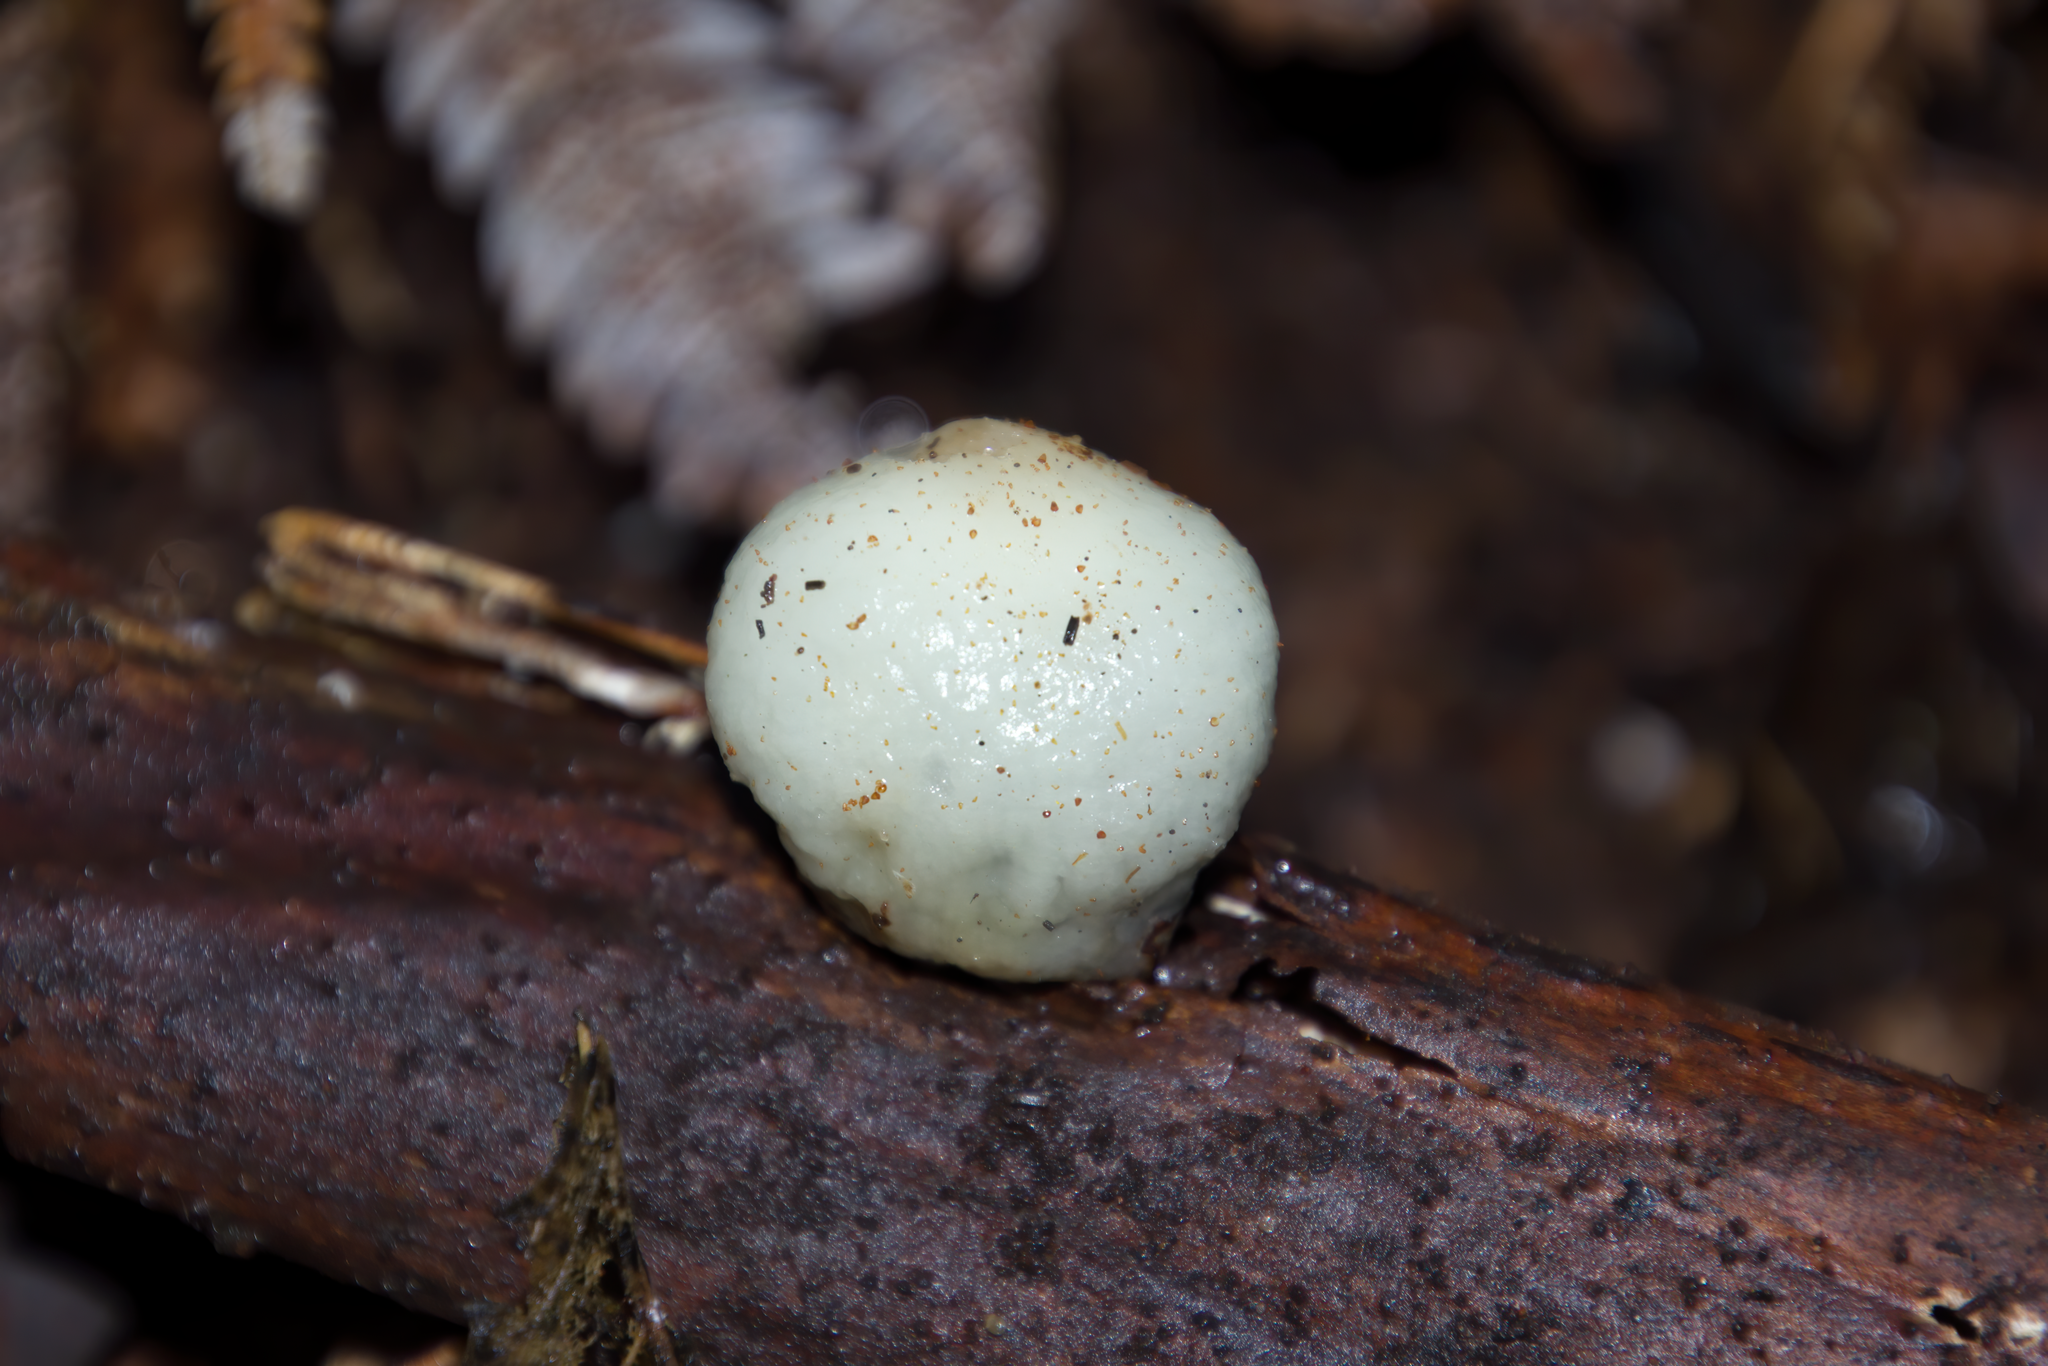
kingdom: Fungi
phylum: Basidiomycota
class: Agaricomycetes
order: Agaricales
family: Hymenogastraceae
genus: Psilocybe
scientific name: Psilocybe weraroa
